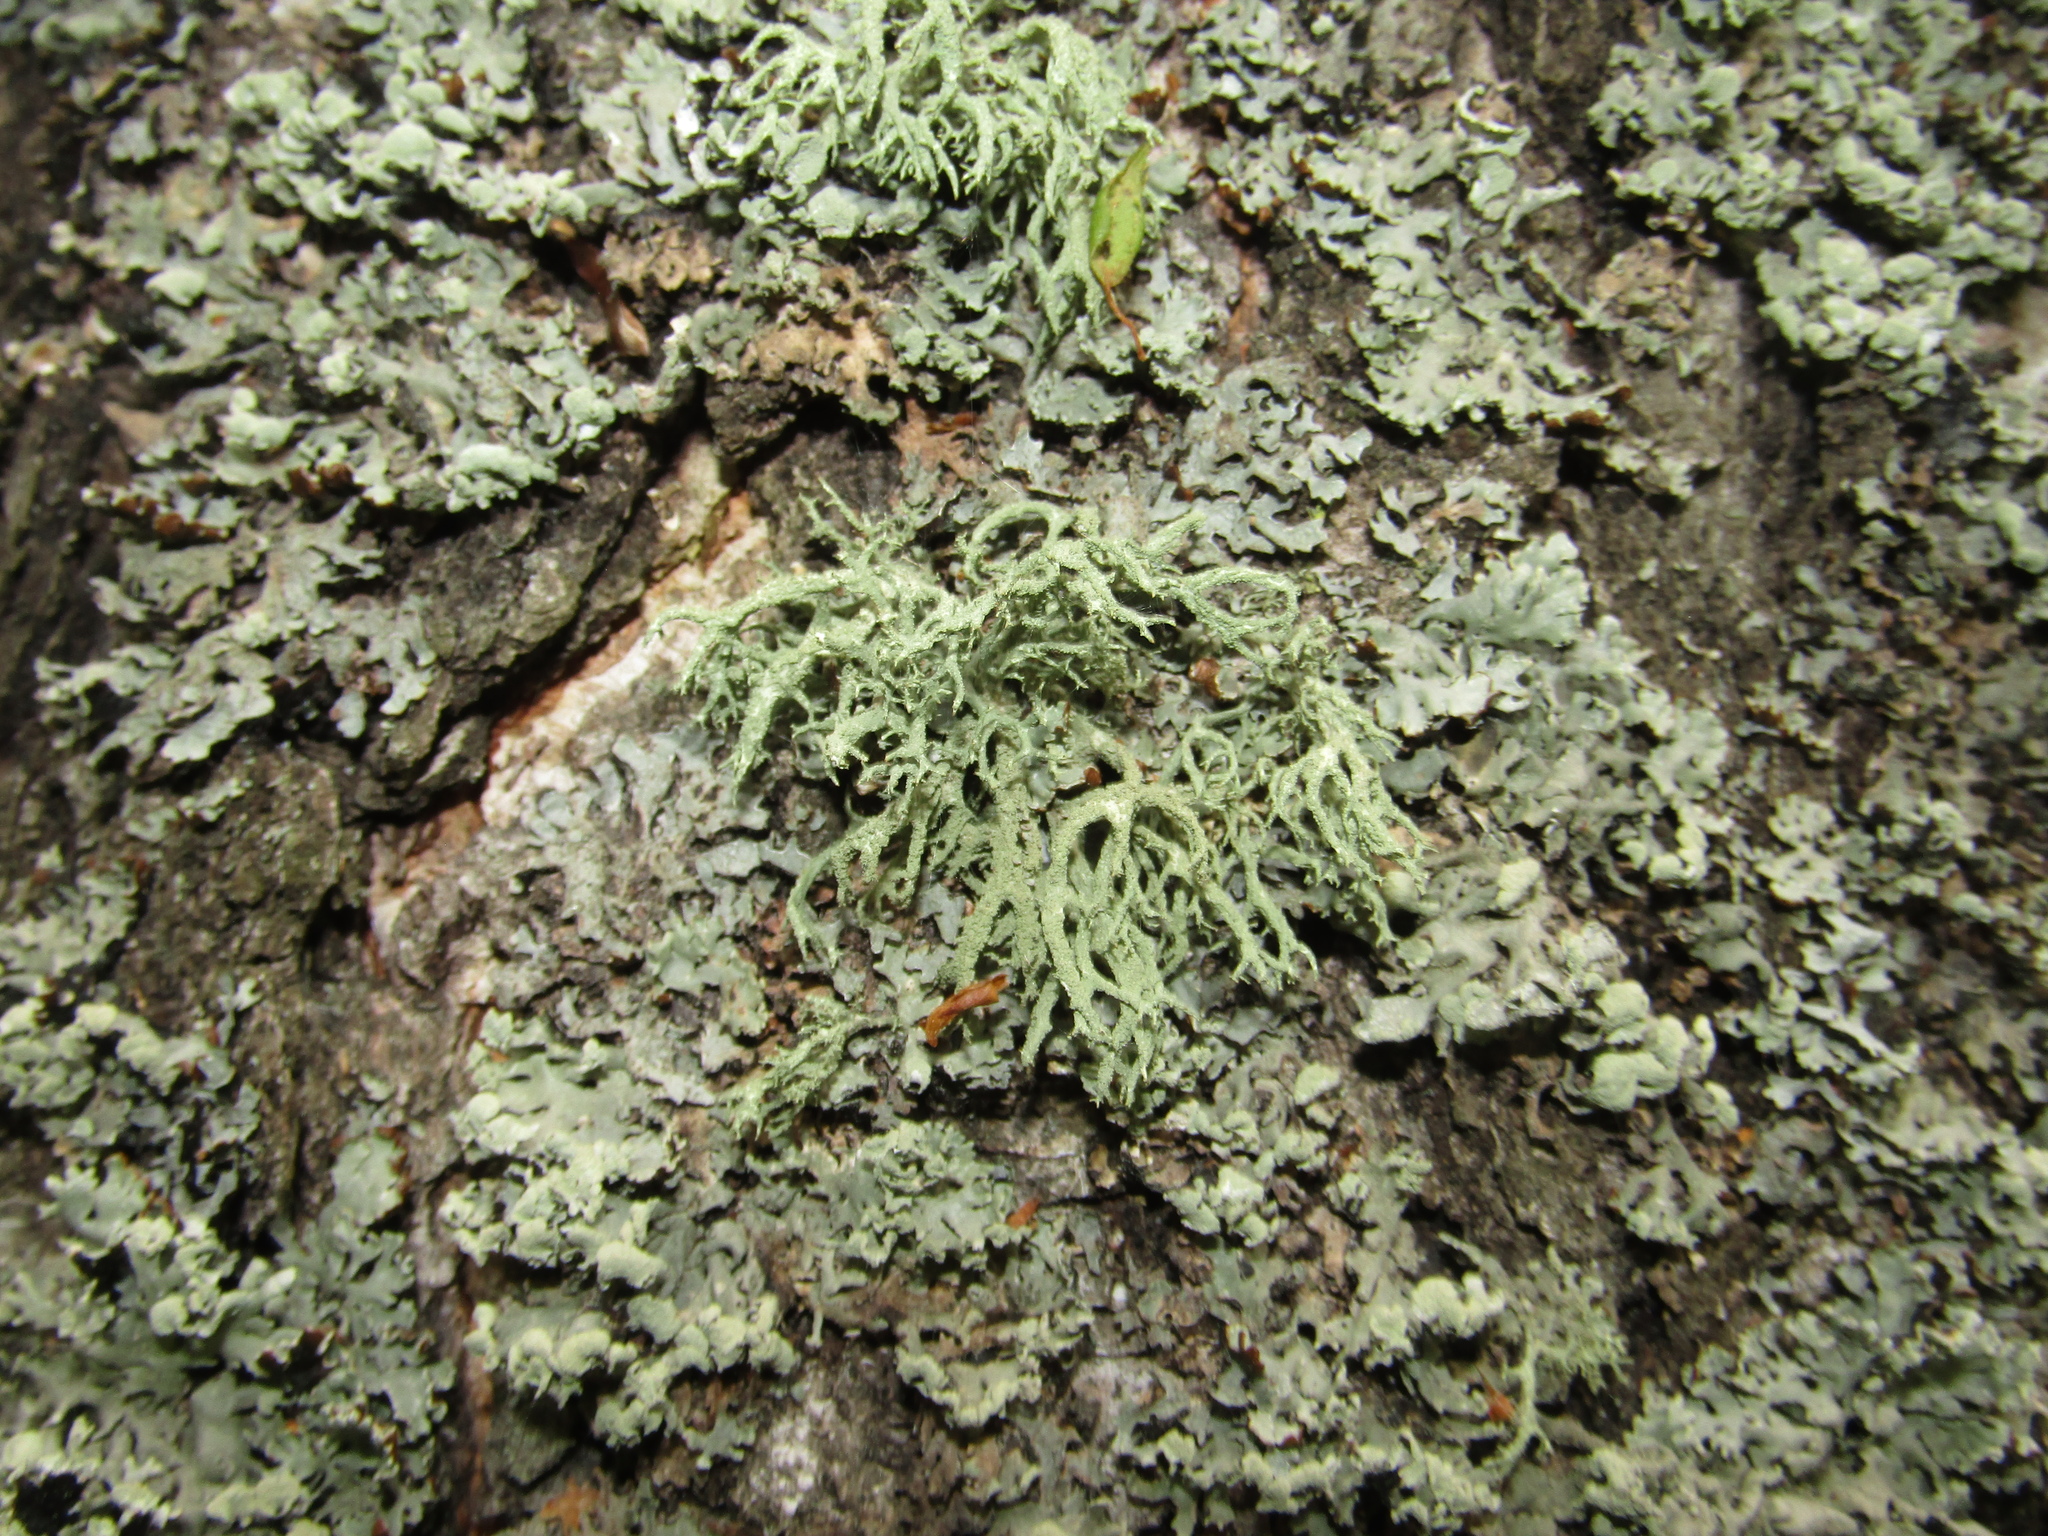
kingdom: Fungi
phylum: Ascomycota
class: Lecanoromycetes
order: Lecanorales
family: Parmeliaceae
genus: Evernia
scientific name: Evernia mesomorpha
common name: Boreal oak moss lichen
